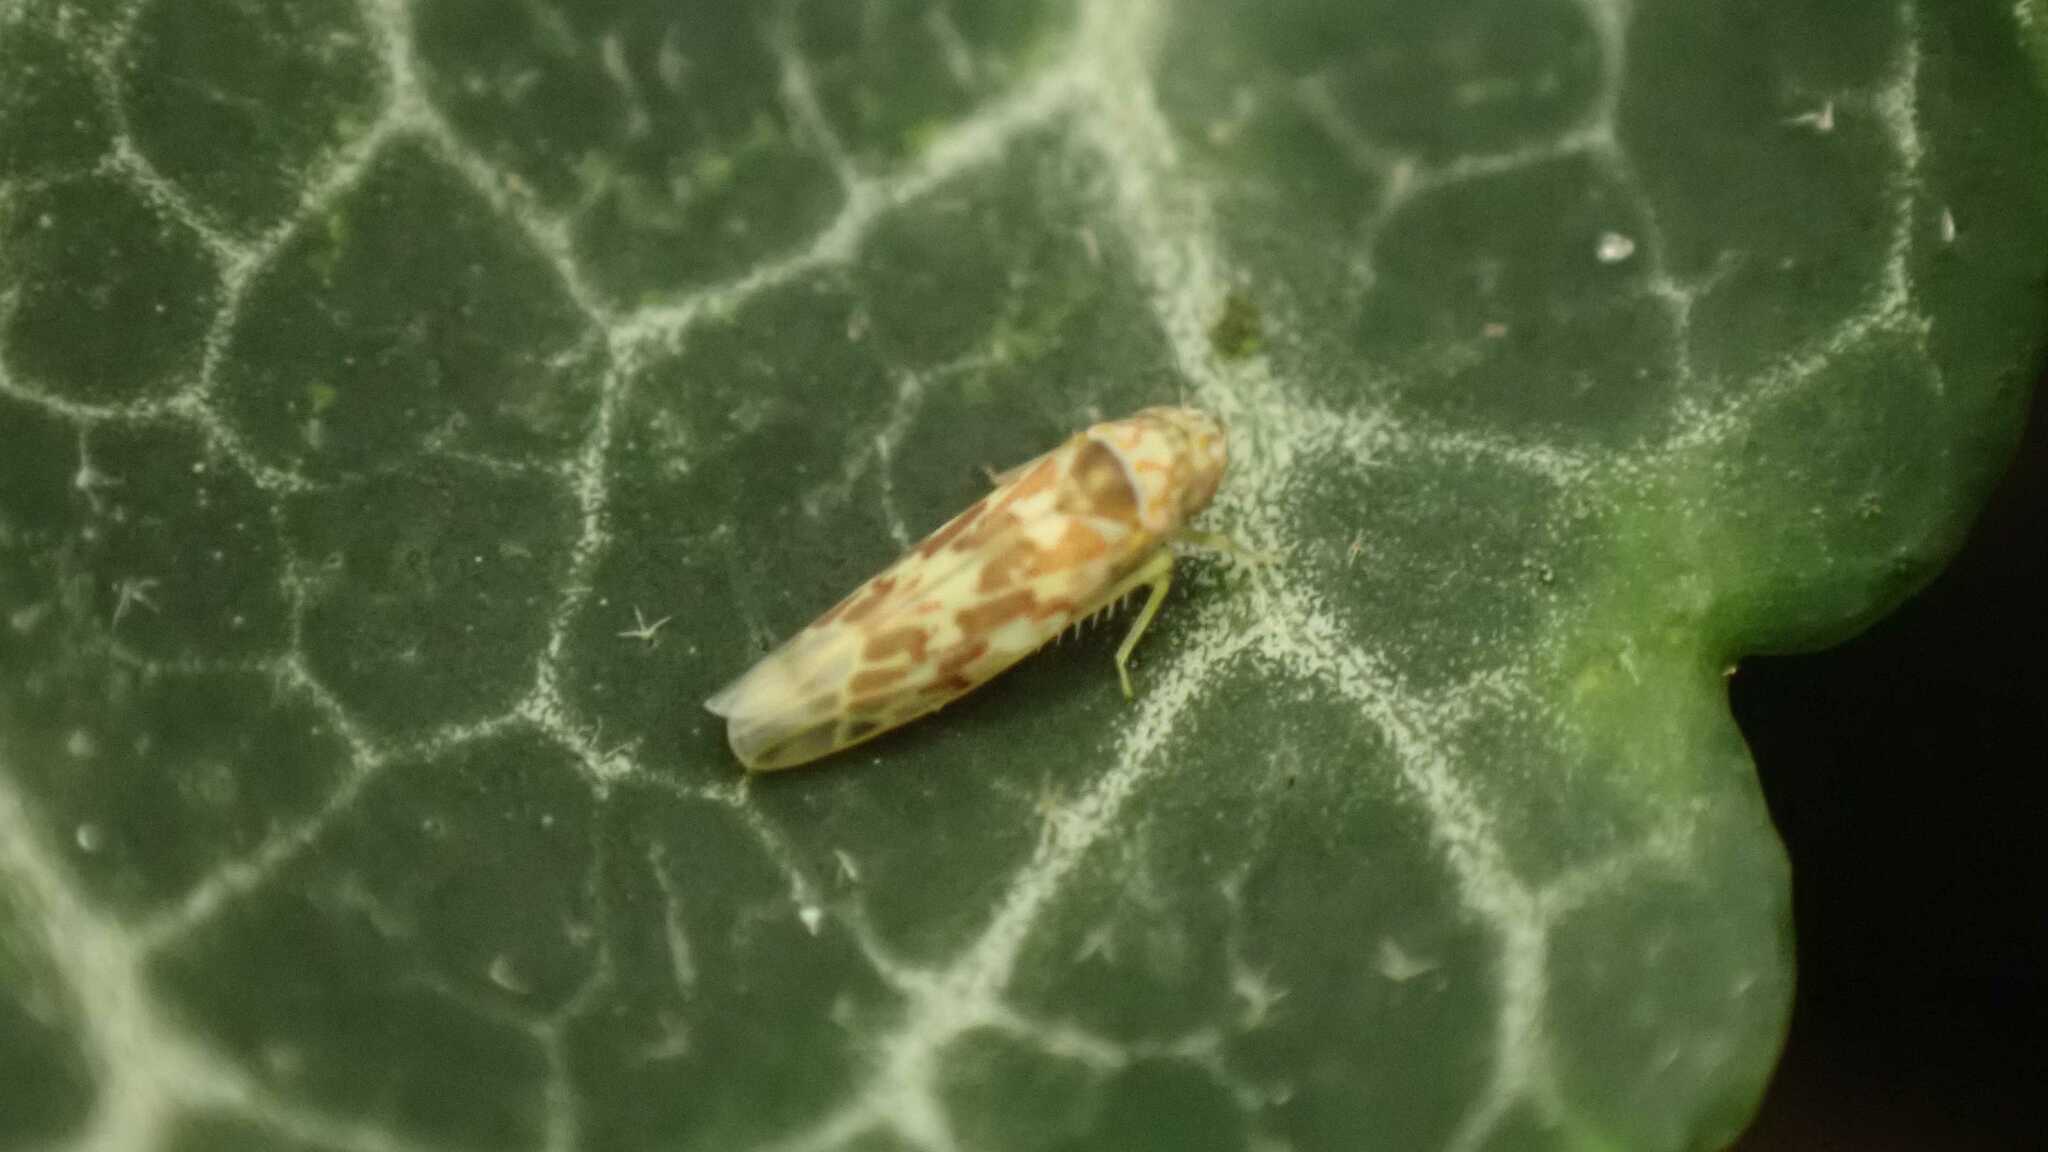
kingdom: Animalia
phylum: Arthropoda
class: Insecta
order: Hemiptera
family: Cicadellidae
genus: Tautoneura
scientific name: Tautoneura polymitusa
